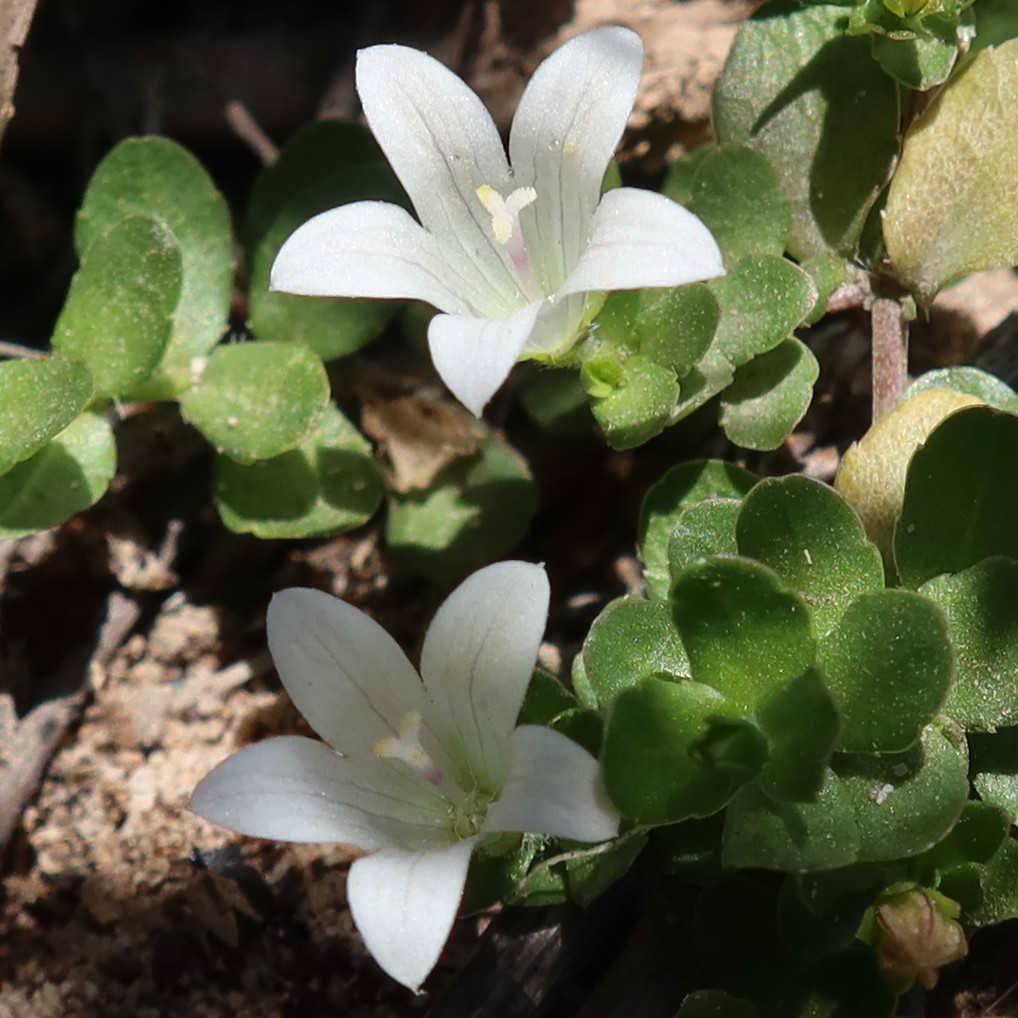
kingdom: Plantae
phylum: Tracheophyta
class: Magnoliopsida
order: Asterales
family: Campanulaceae
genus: Wahlenbergia
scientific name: Wahlenbergia procumbens
